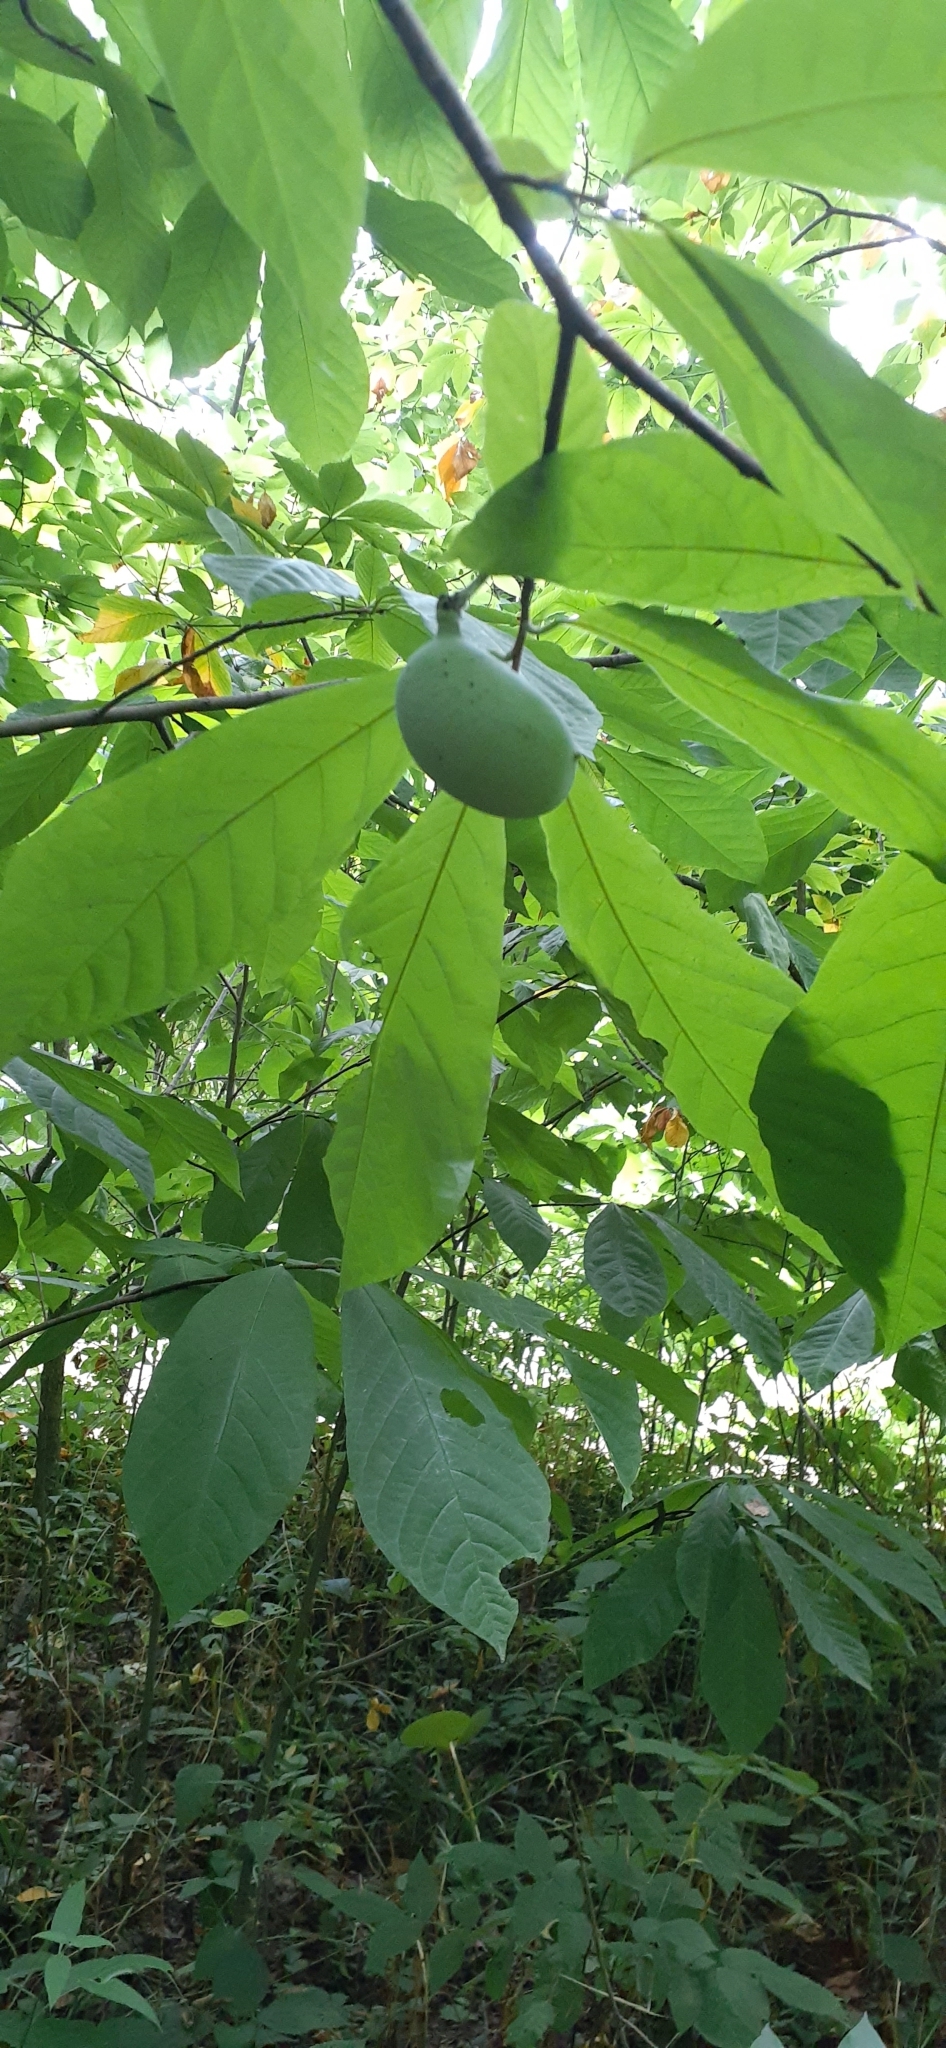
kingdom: Plantae
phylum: Tracheophyta
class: Magnoliopsida
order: Magnoliales
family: Annonaceae
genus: Asimina
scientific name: Asimina triloba
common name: Dog-banana
